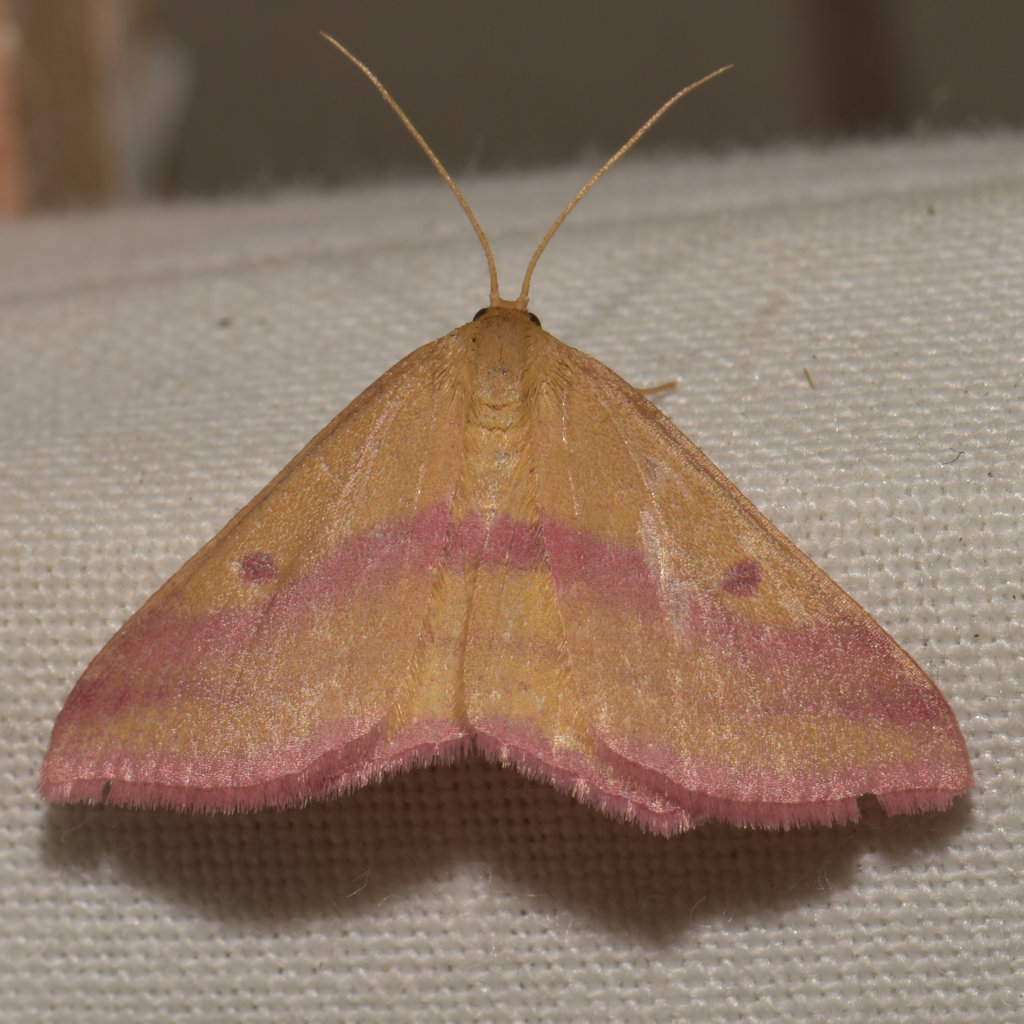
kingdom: Animalia
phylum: Arthropoda
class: Insecta
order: Lepidoptera
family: Geometridae
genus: Haematopis
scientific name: Haematopis grataria
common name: Chickweed geometer
